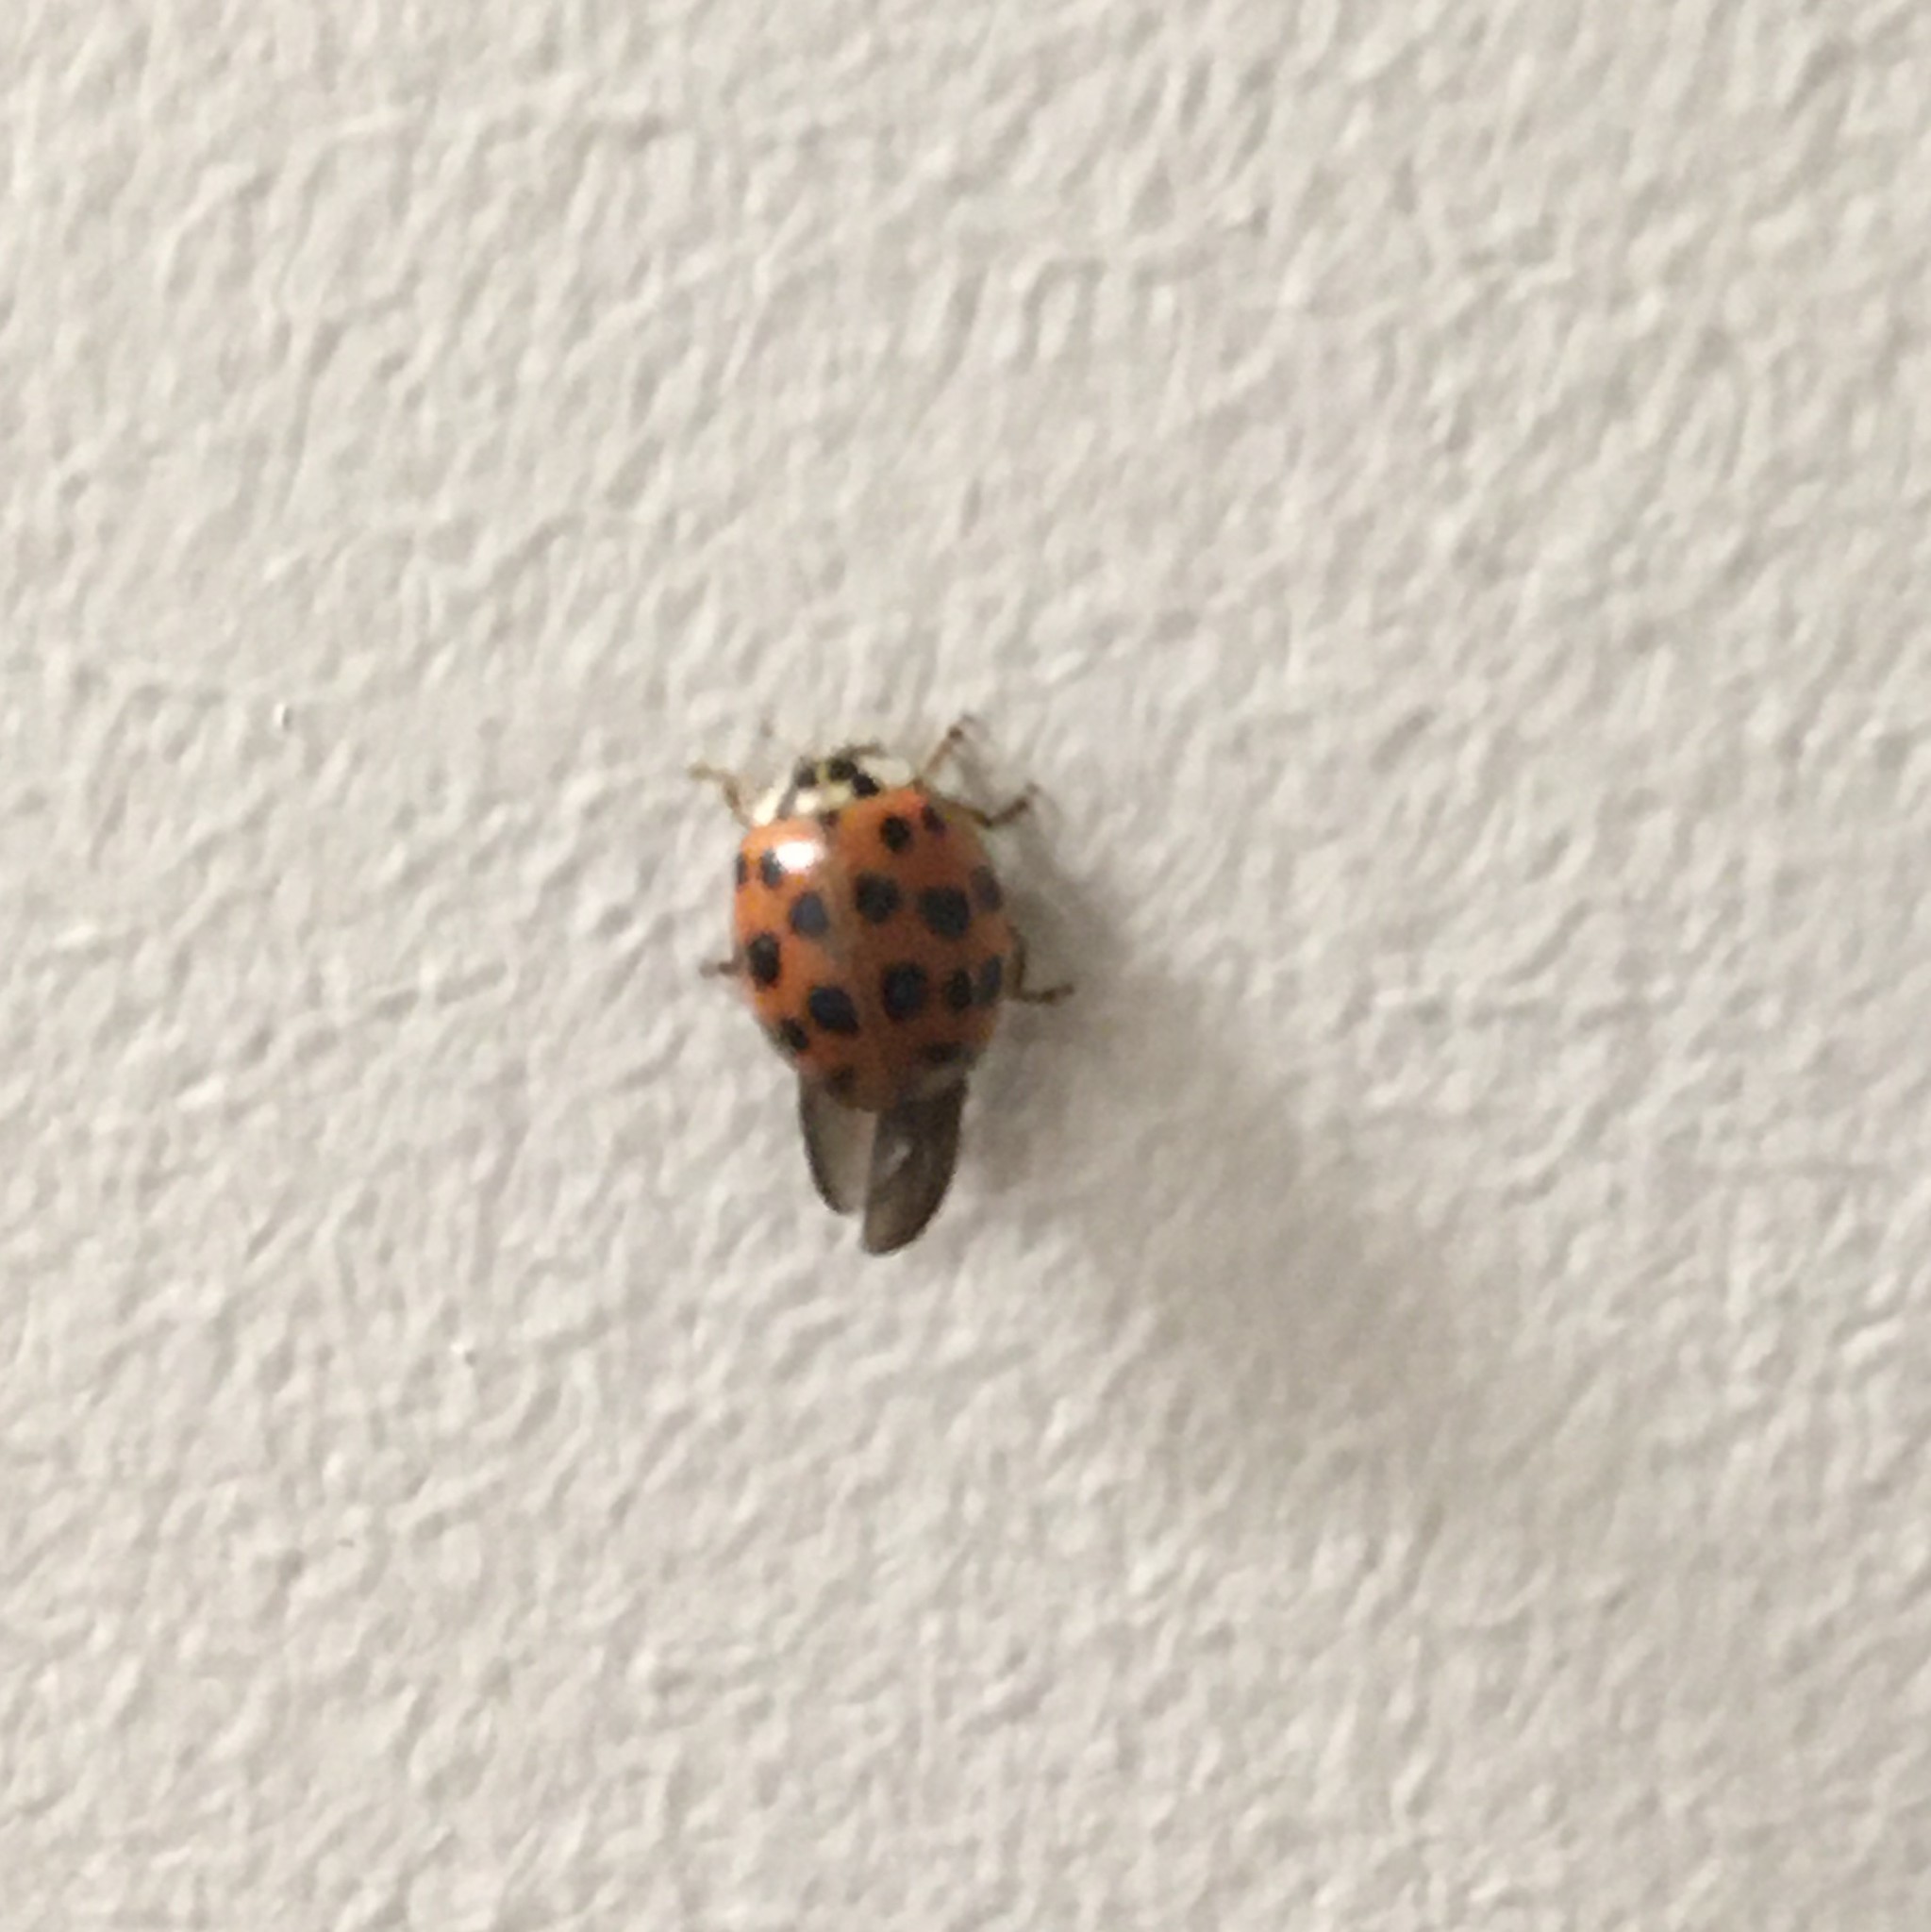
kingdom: Animalia
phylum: Arthropoda
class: Insecta
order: Coleoptera
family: Coccinellidae
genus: Harmonia
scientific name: Harmonia axyridis
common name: Harlequin ladybird
